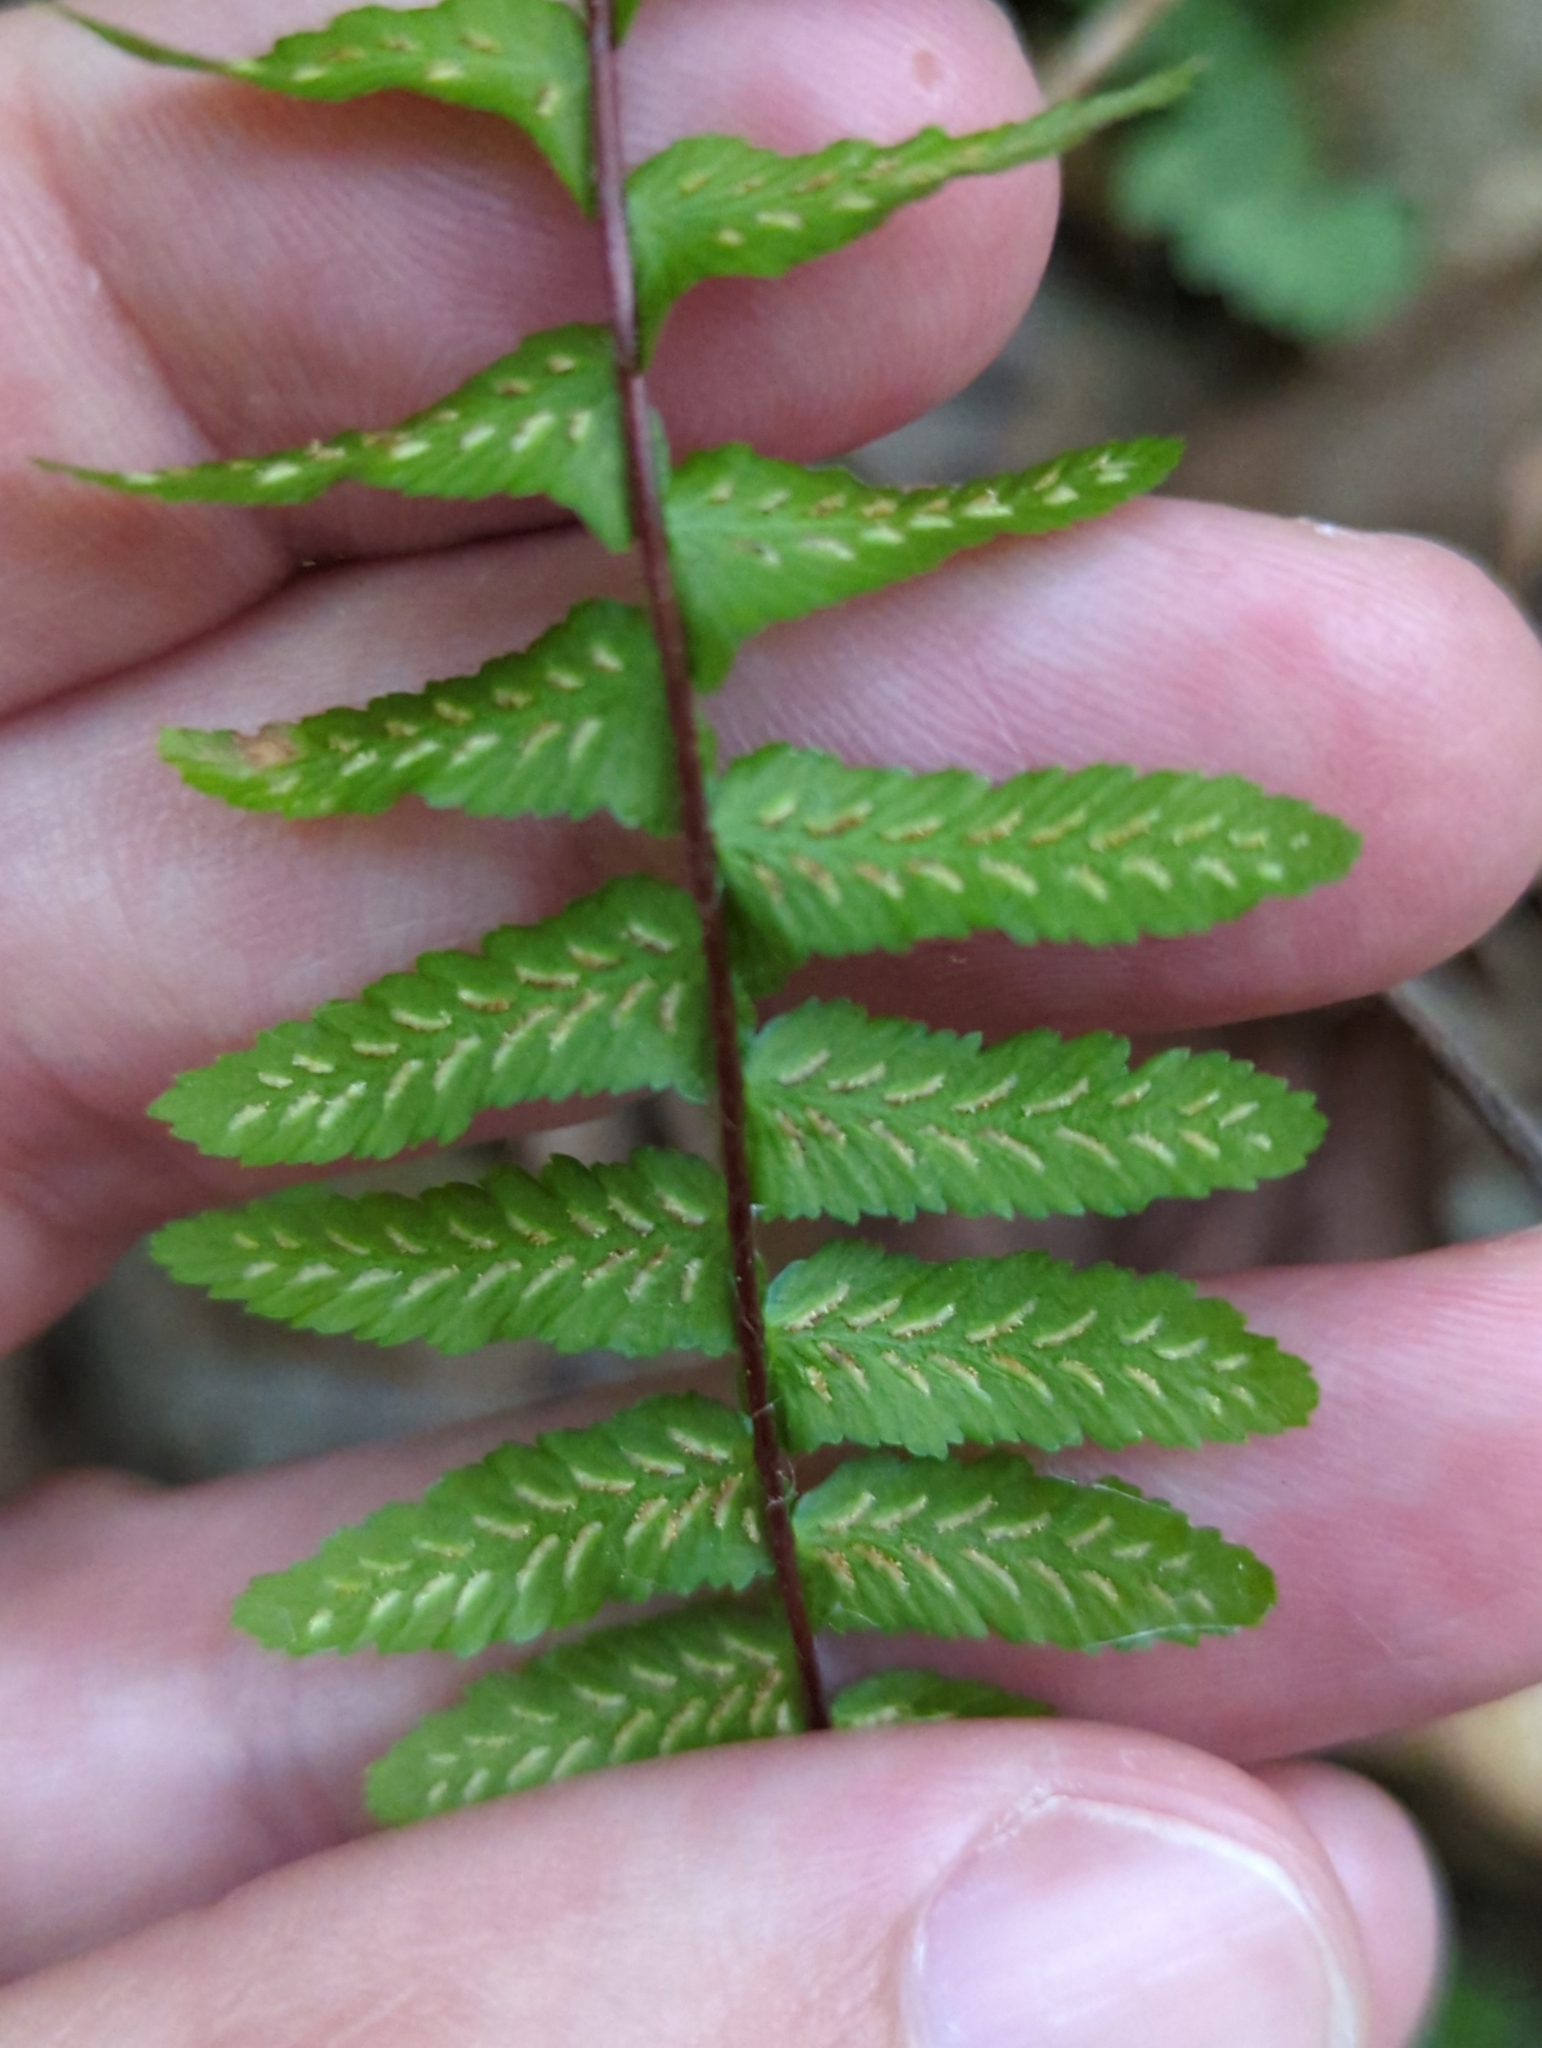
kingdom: Plantae
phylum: Tracheophyta
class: Polypodiopsida
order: Polypodiales
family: Aspleniaceae
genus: Asplenium
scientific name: Asplenium platyneuron
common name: Ebony spleenwort
